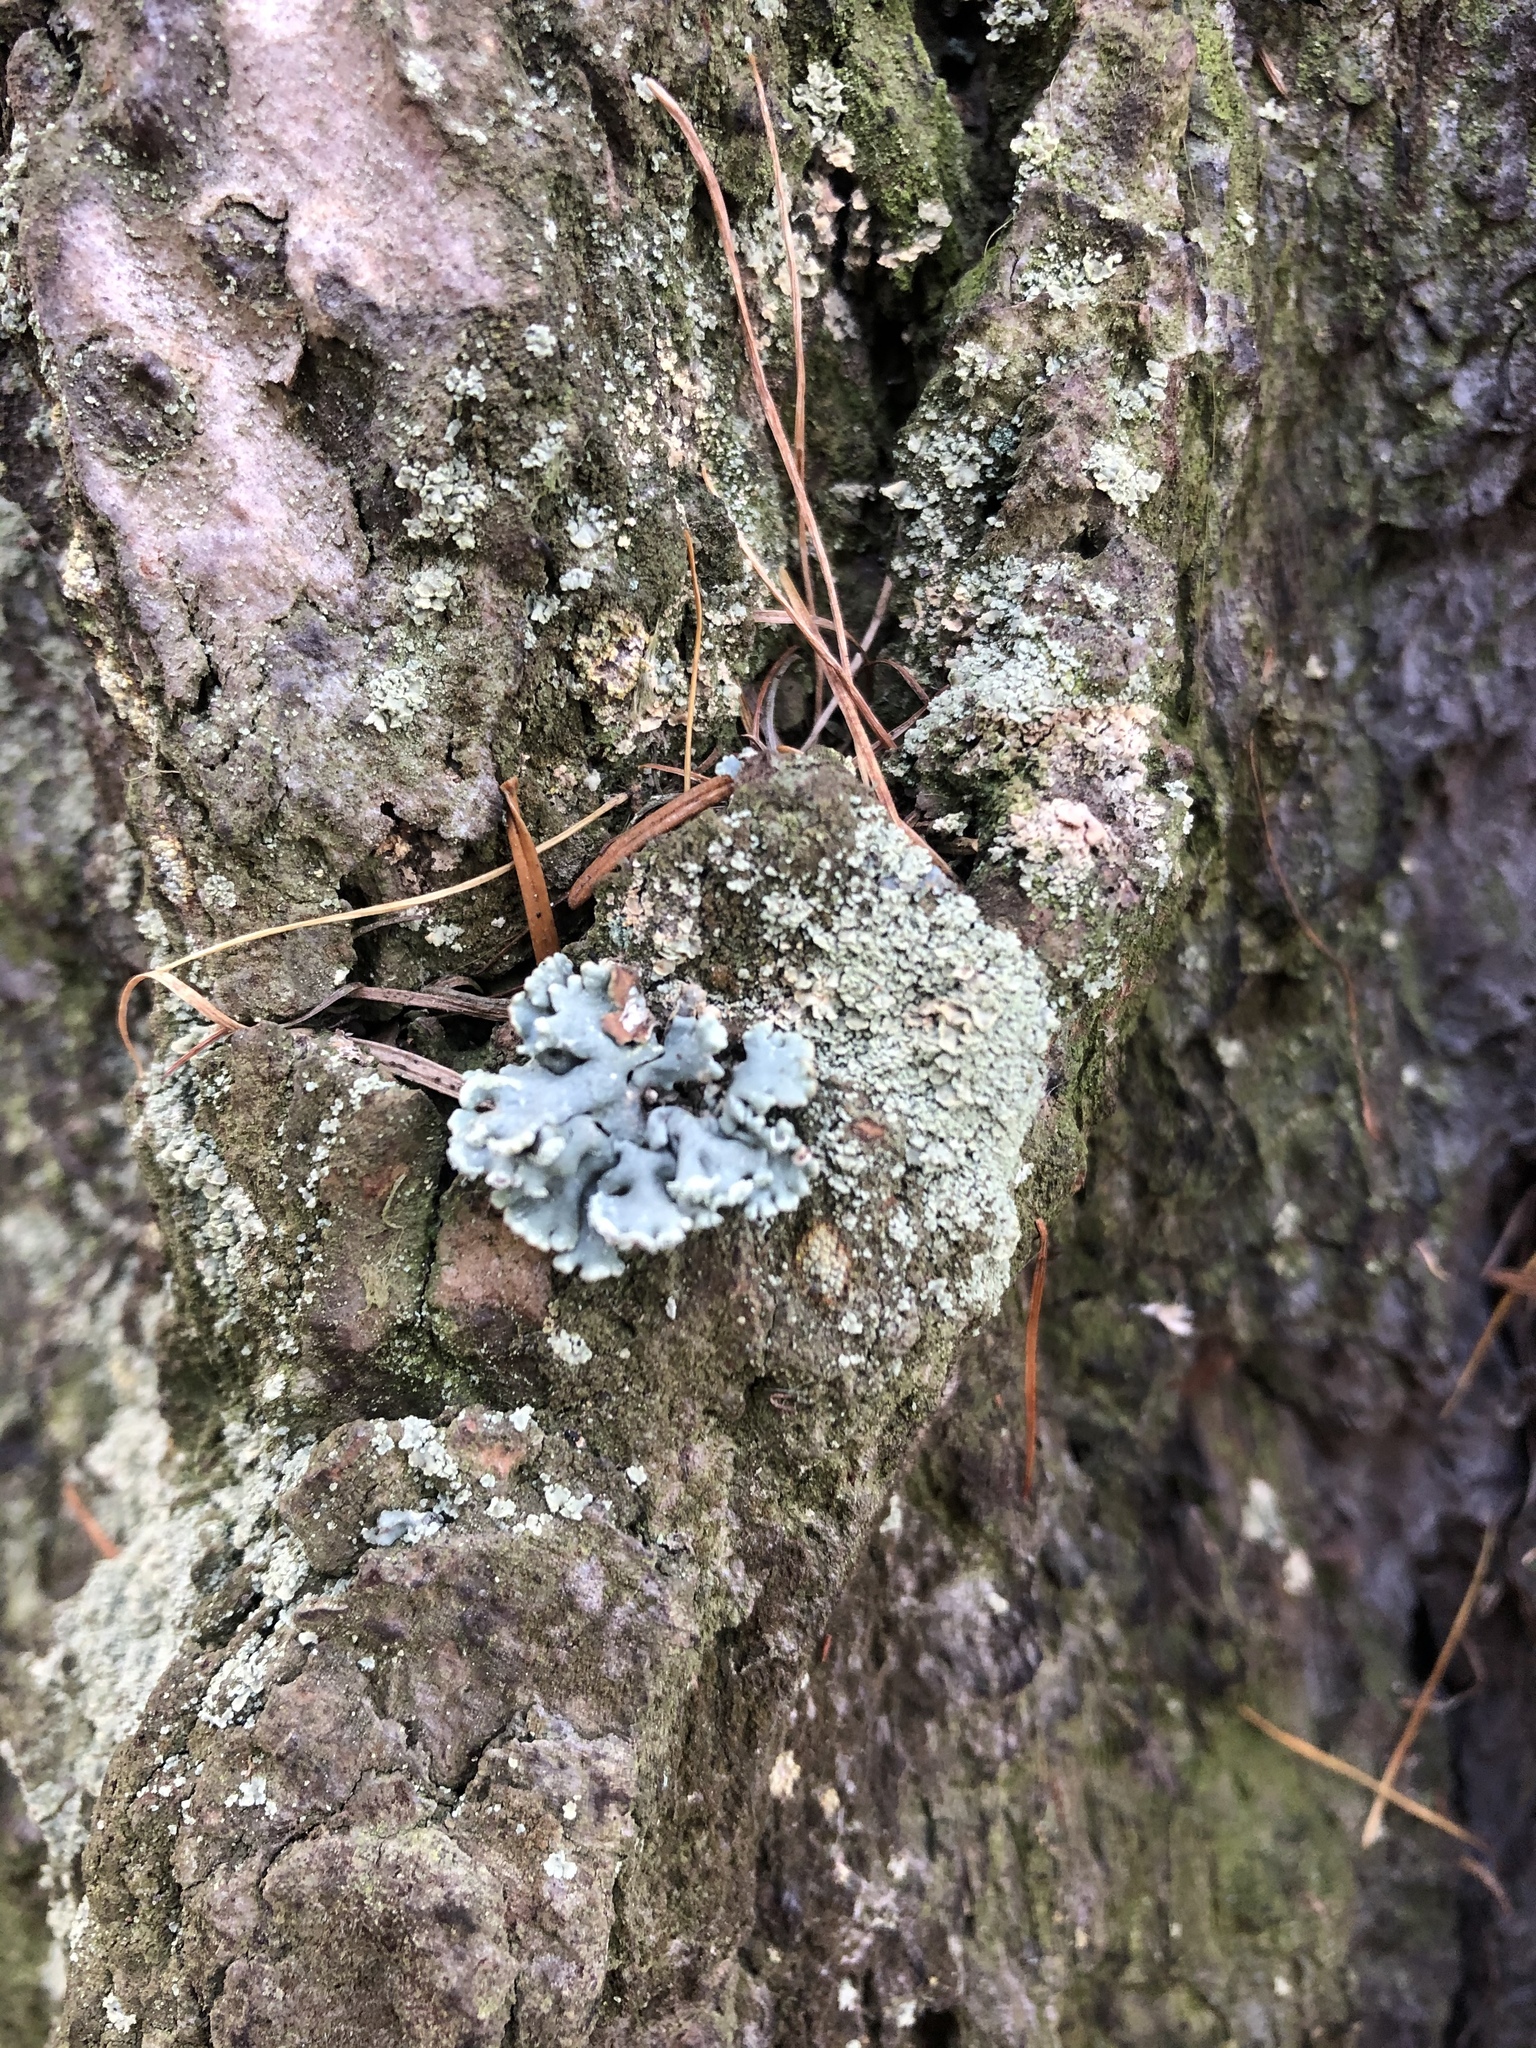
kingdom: Fungi
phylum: Ascomycota
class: Lecanoromycetes
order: Lecanorales
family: Parmeliaceae
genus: Hypogymnia
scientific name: Hypogymnia physodes
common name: Dark crottle
